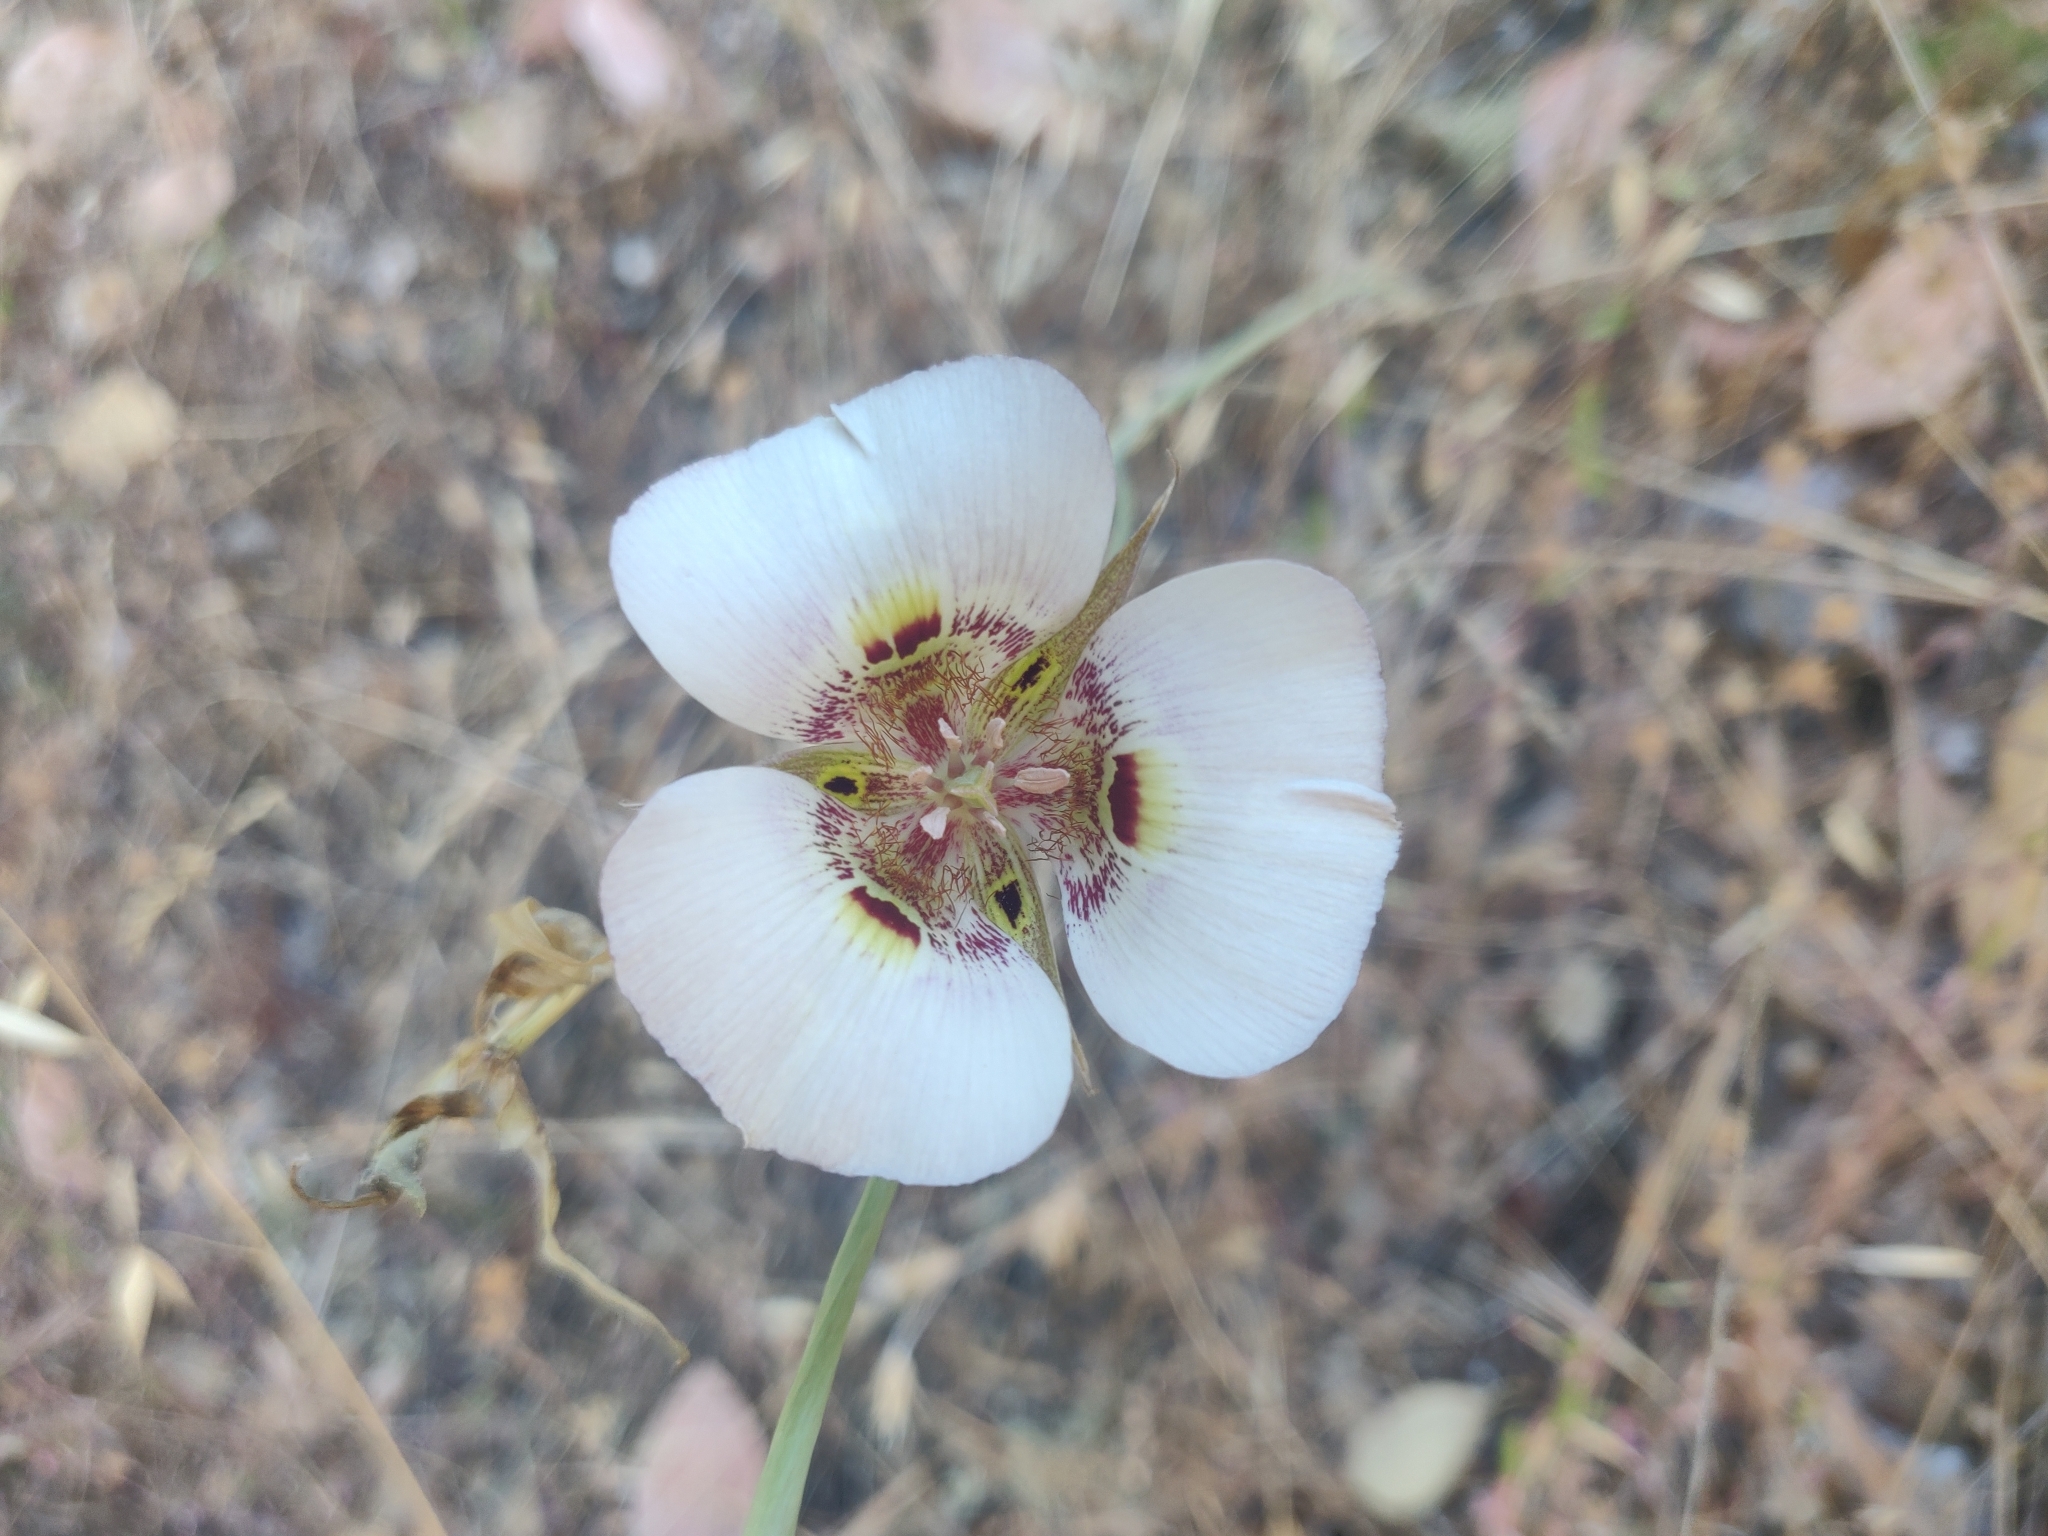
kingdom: Plantae
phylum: Tracheophyta
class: Liliopsida
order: Liliales
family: Liliaceae
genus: Calochortus
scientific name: Calochortus argillosus
